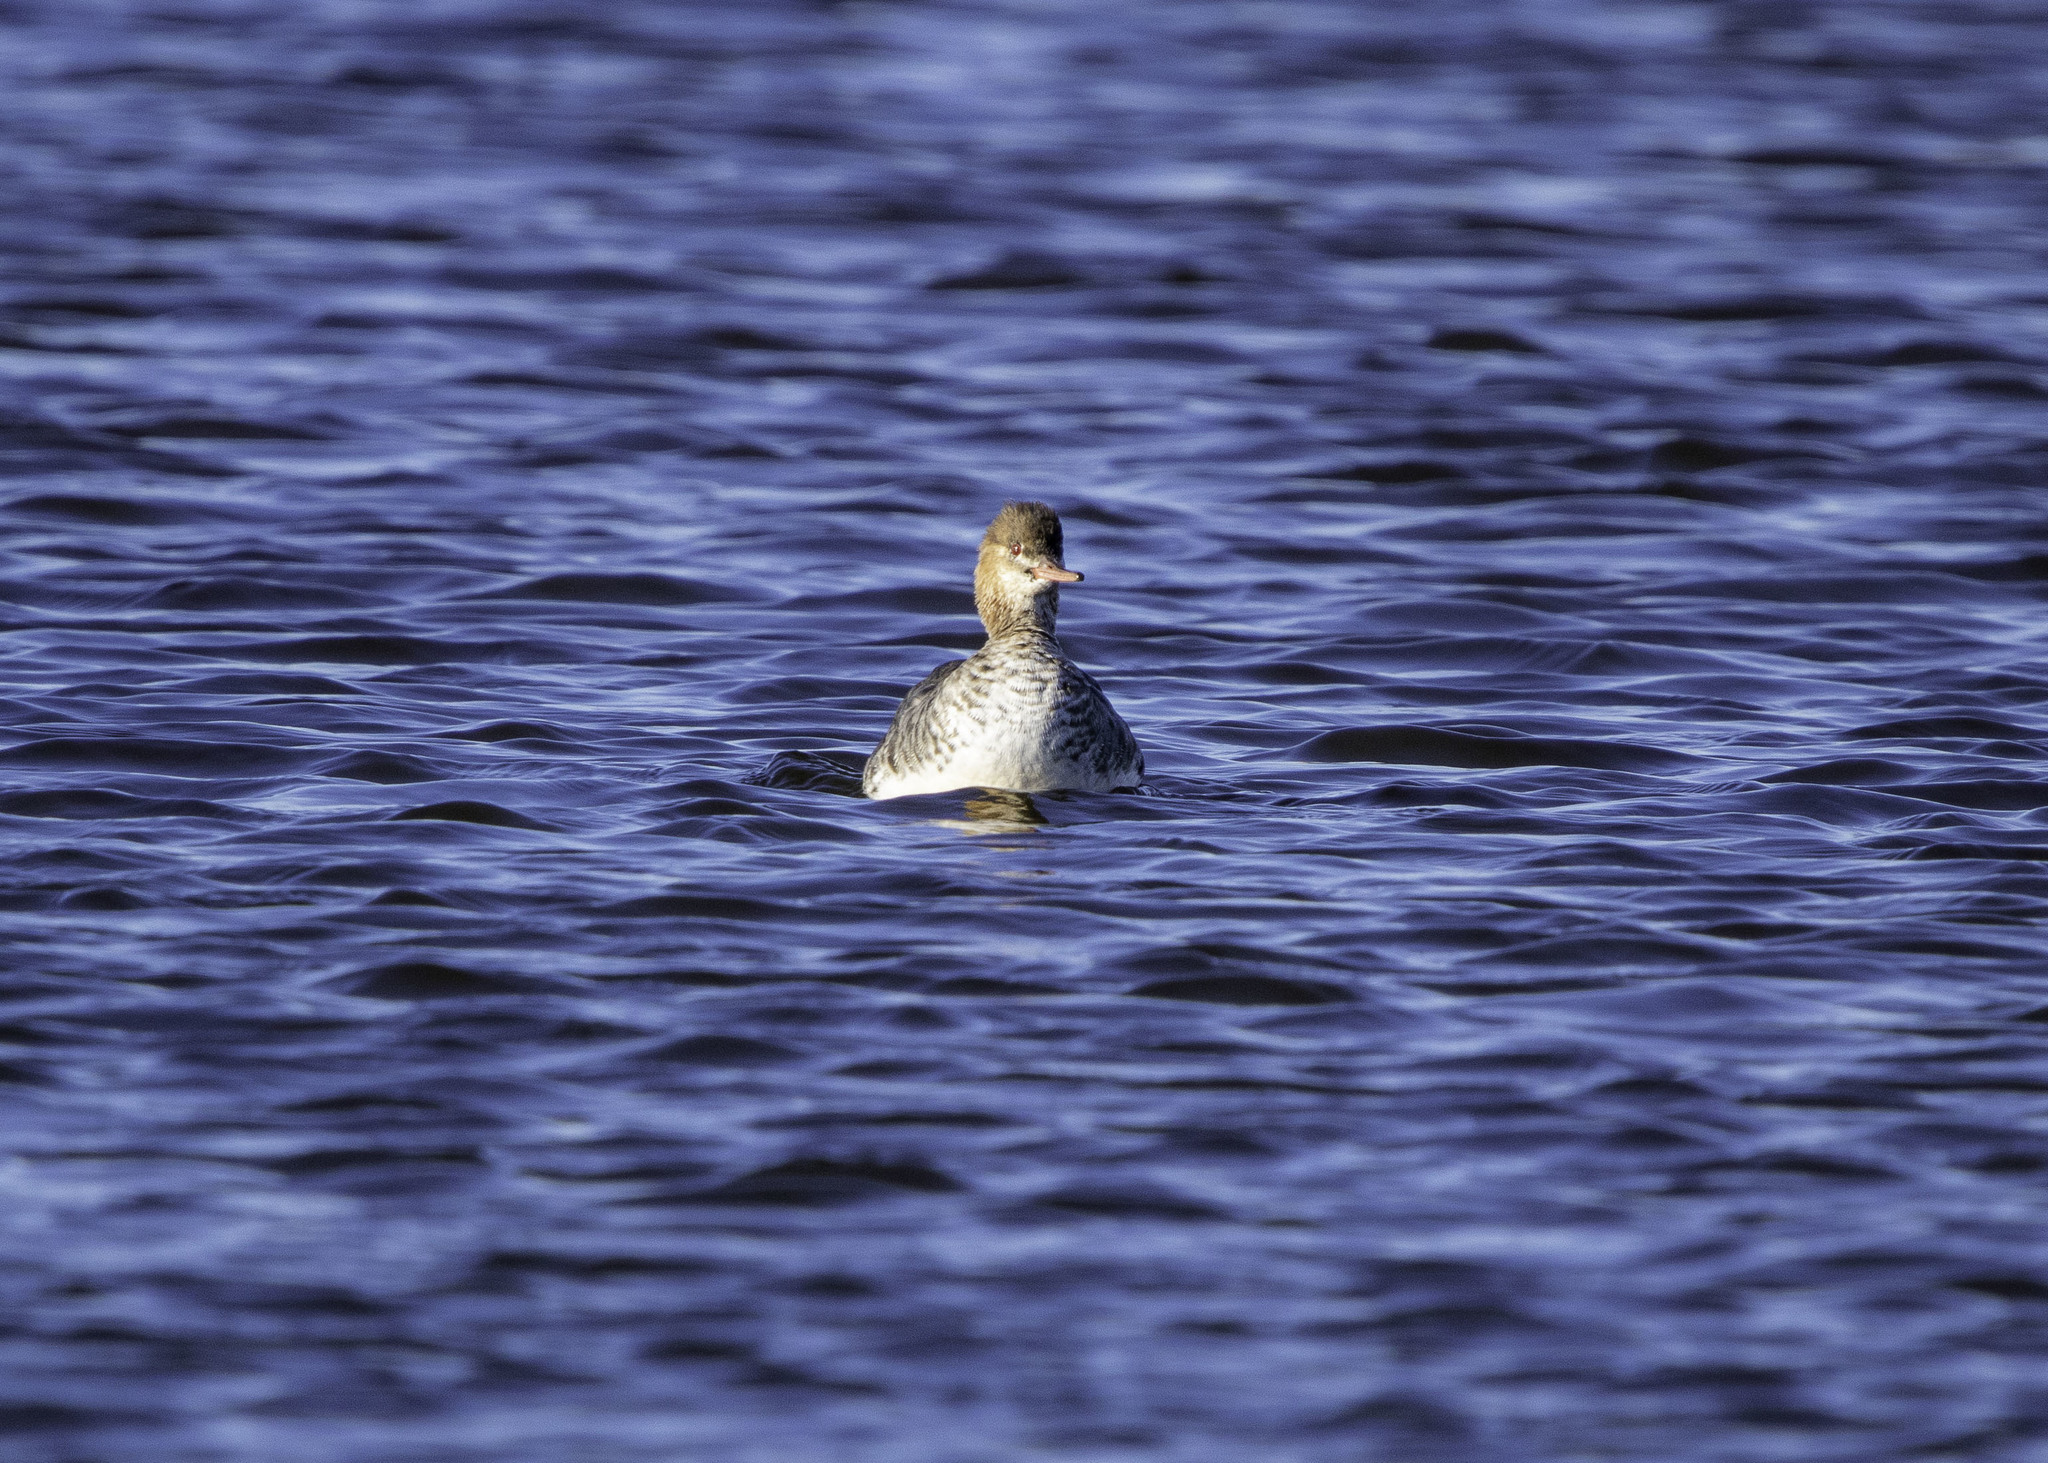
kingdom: Animalia
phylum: Chordata
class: Aves
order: Anseriformes
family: Anatidae
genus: Mergus
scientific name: Mergus serrator
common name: Red-breasted merganser
